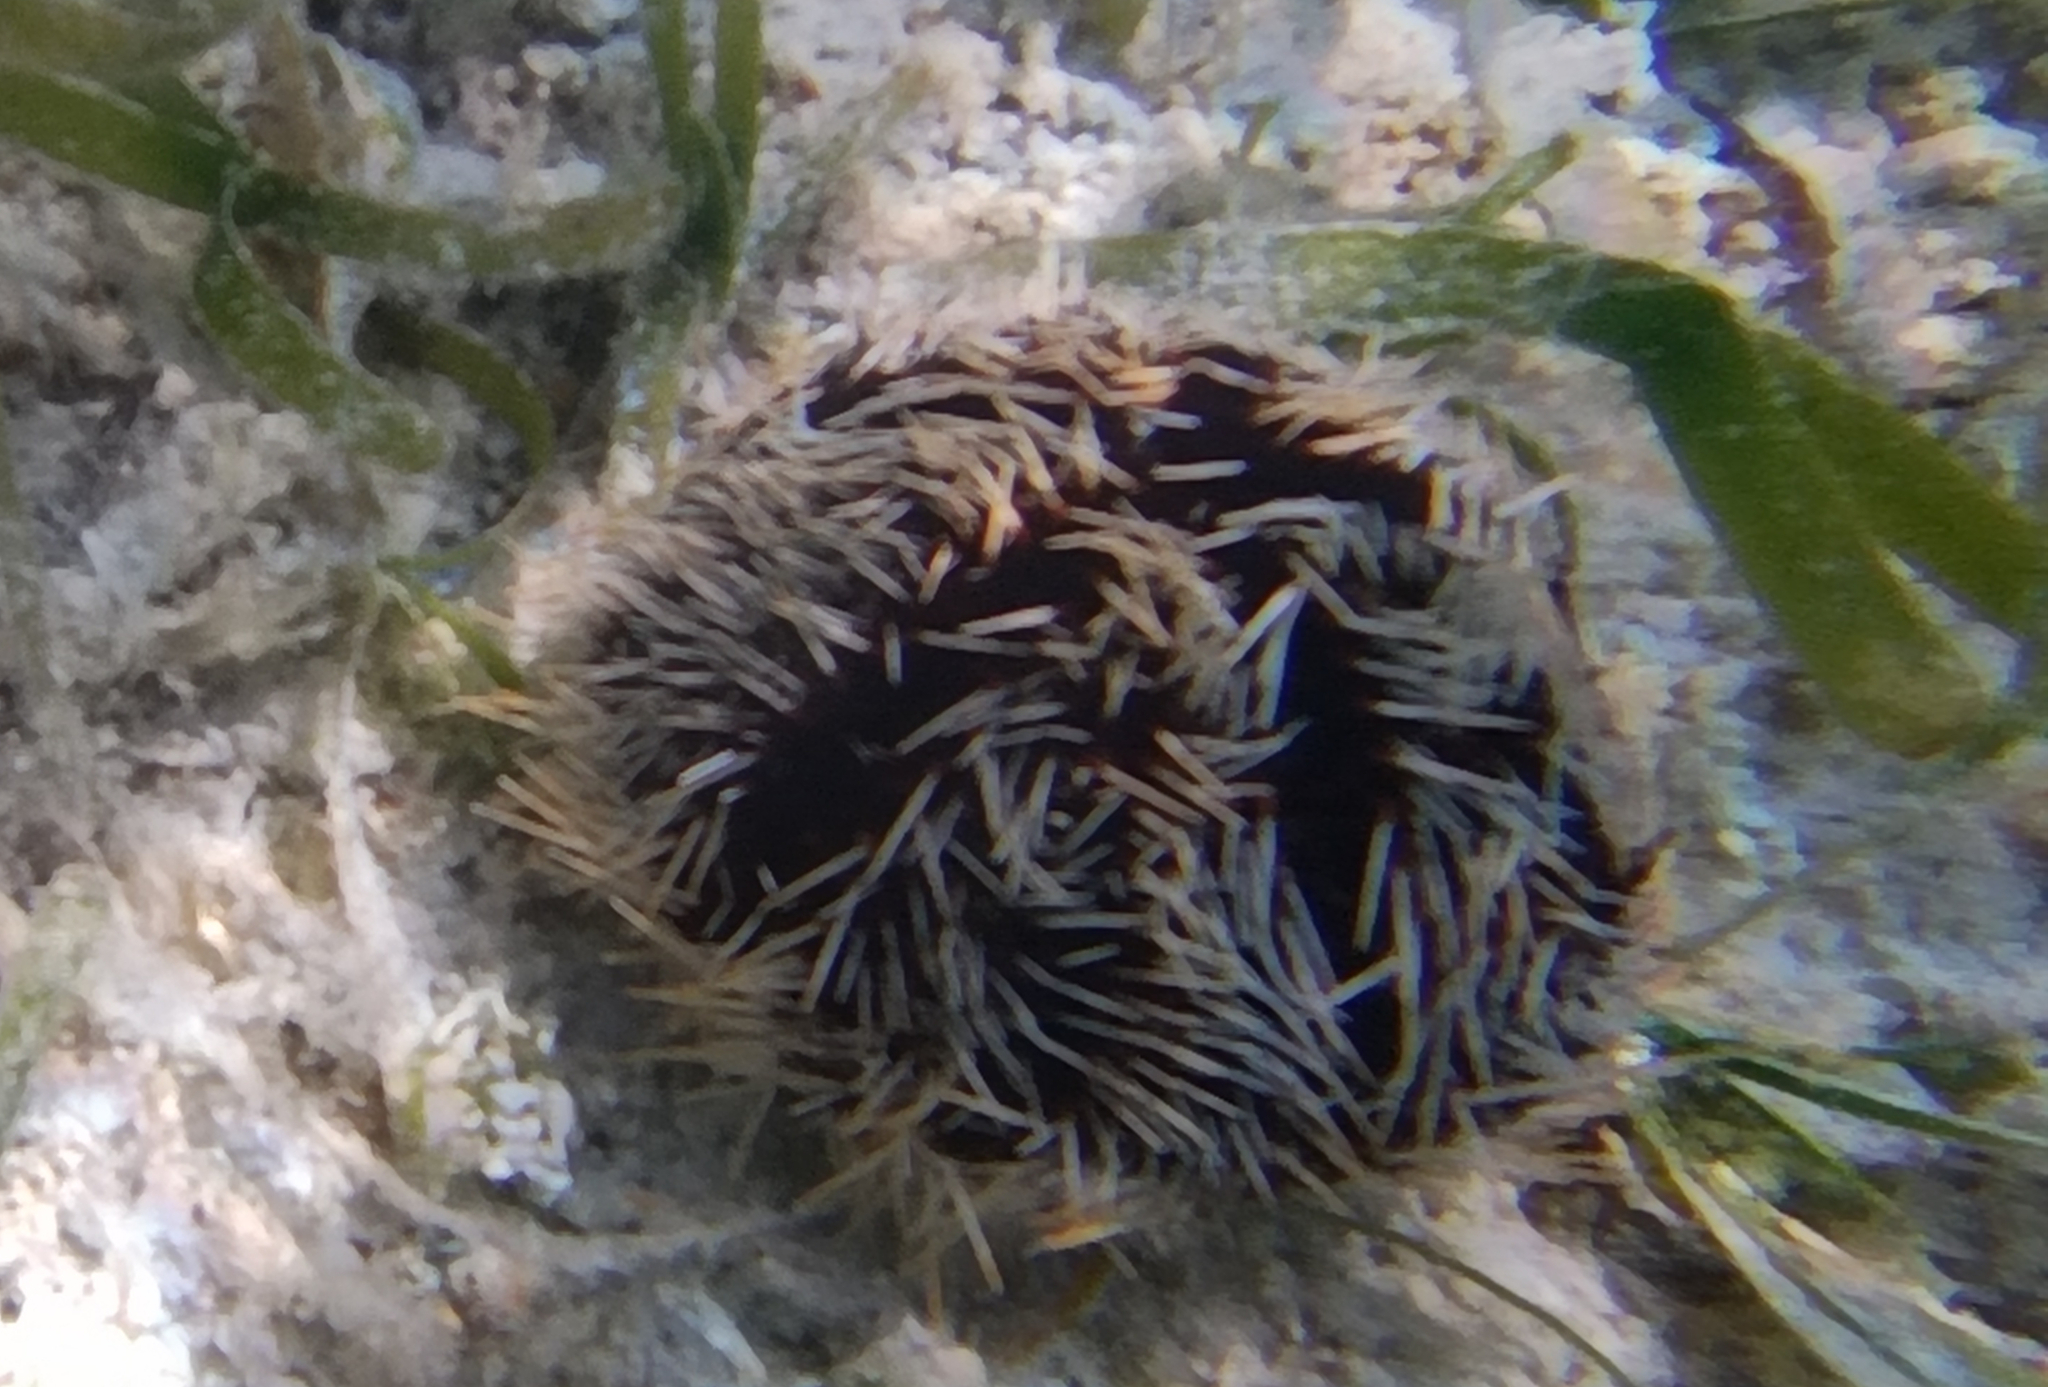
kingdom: Animalia
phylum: Echinodermata
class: Echinoidea
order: Camarodonta
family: Toxopneustidae
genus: Tripneustes
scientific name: Tripneustes gratilla
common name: Bischofsmützenseeigel
